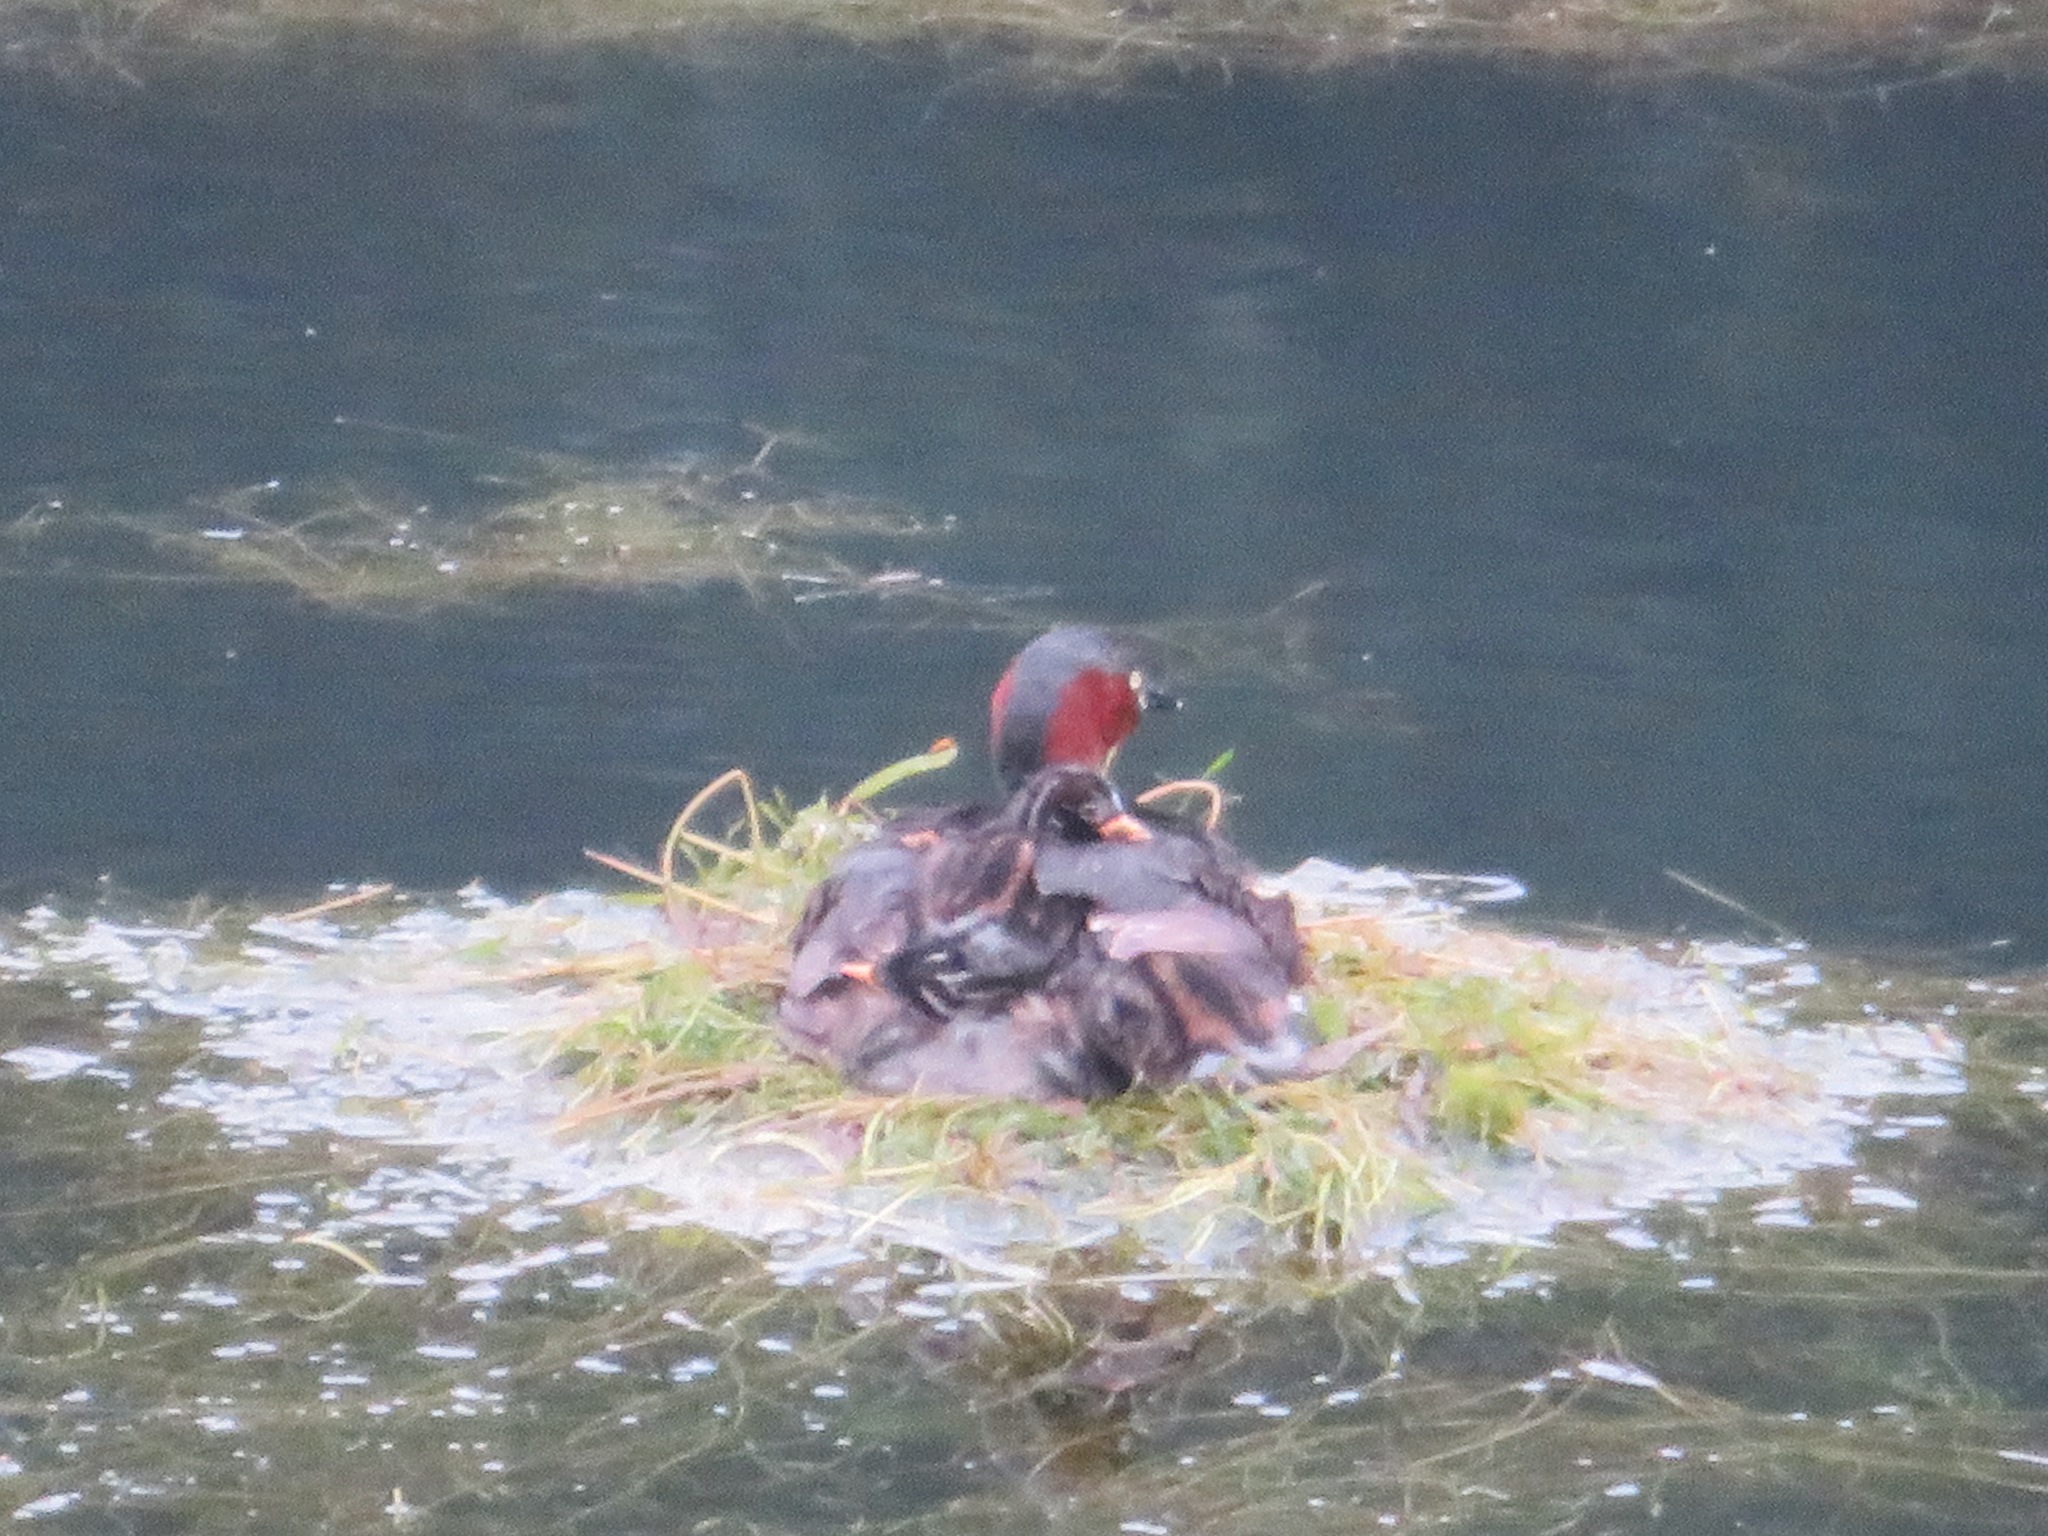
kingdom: Animalia
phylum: Chordata
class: Aves
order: Podicipediformes
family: Podicipedidae
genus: Tachybaptus
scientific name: Tachybaptus ruficollis
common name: Little grebe
